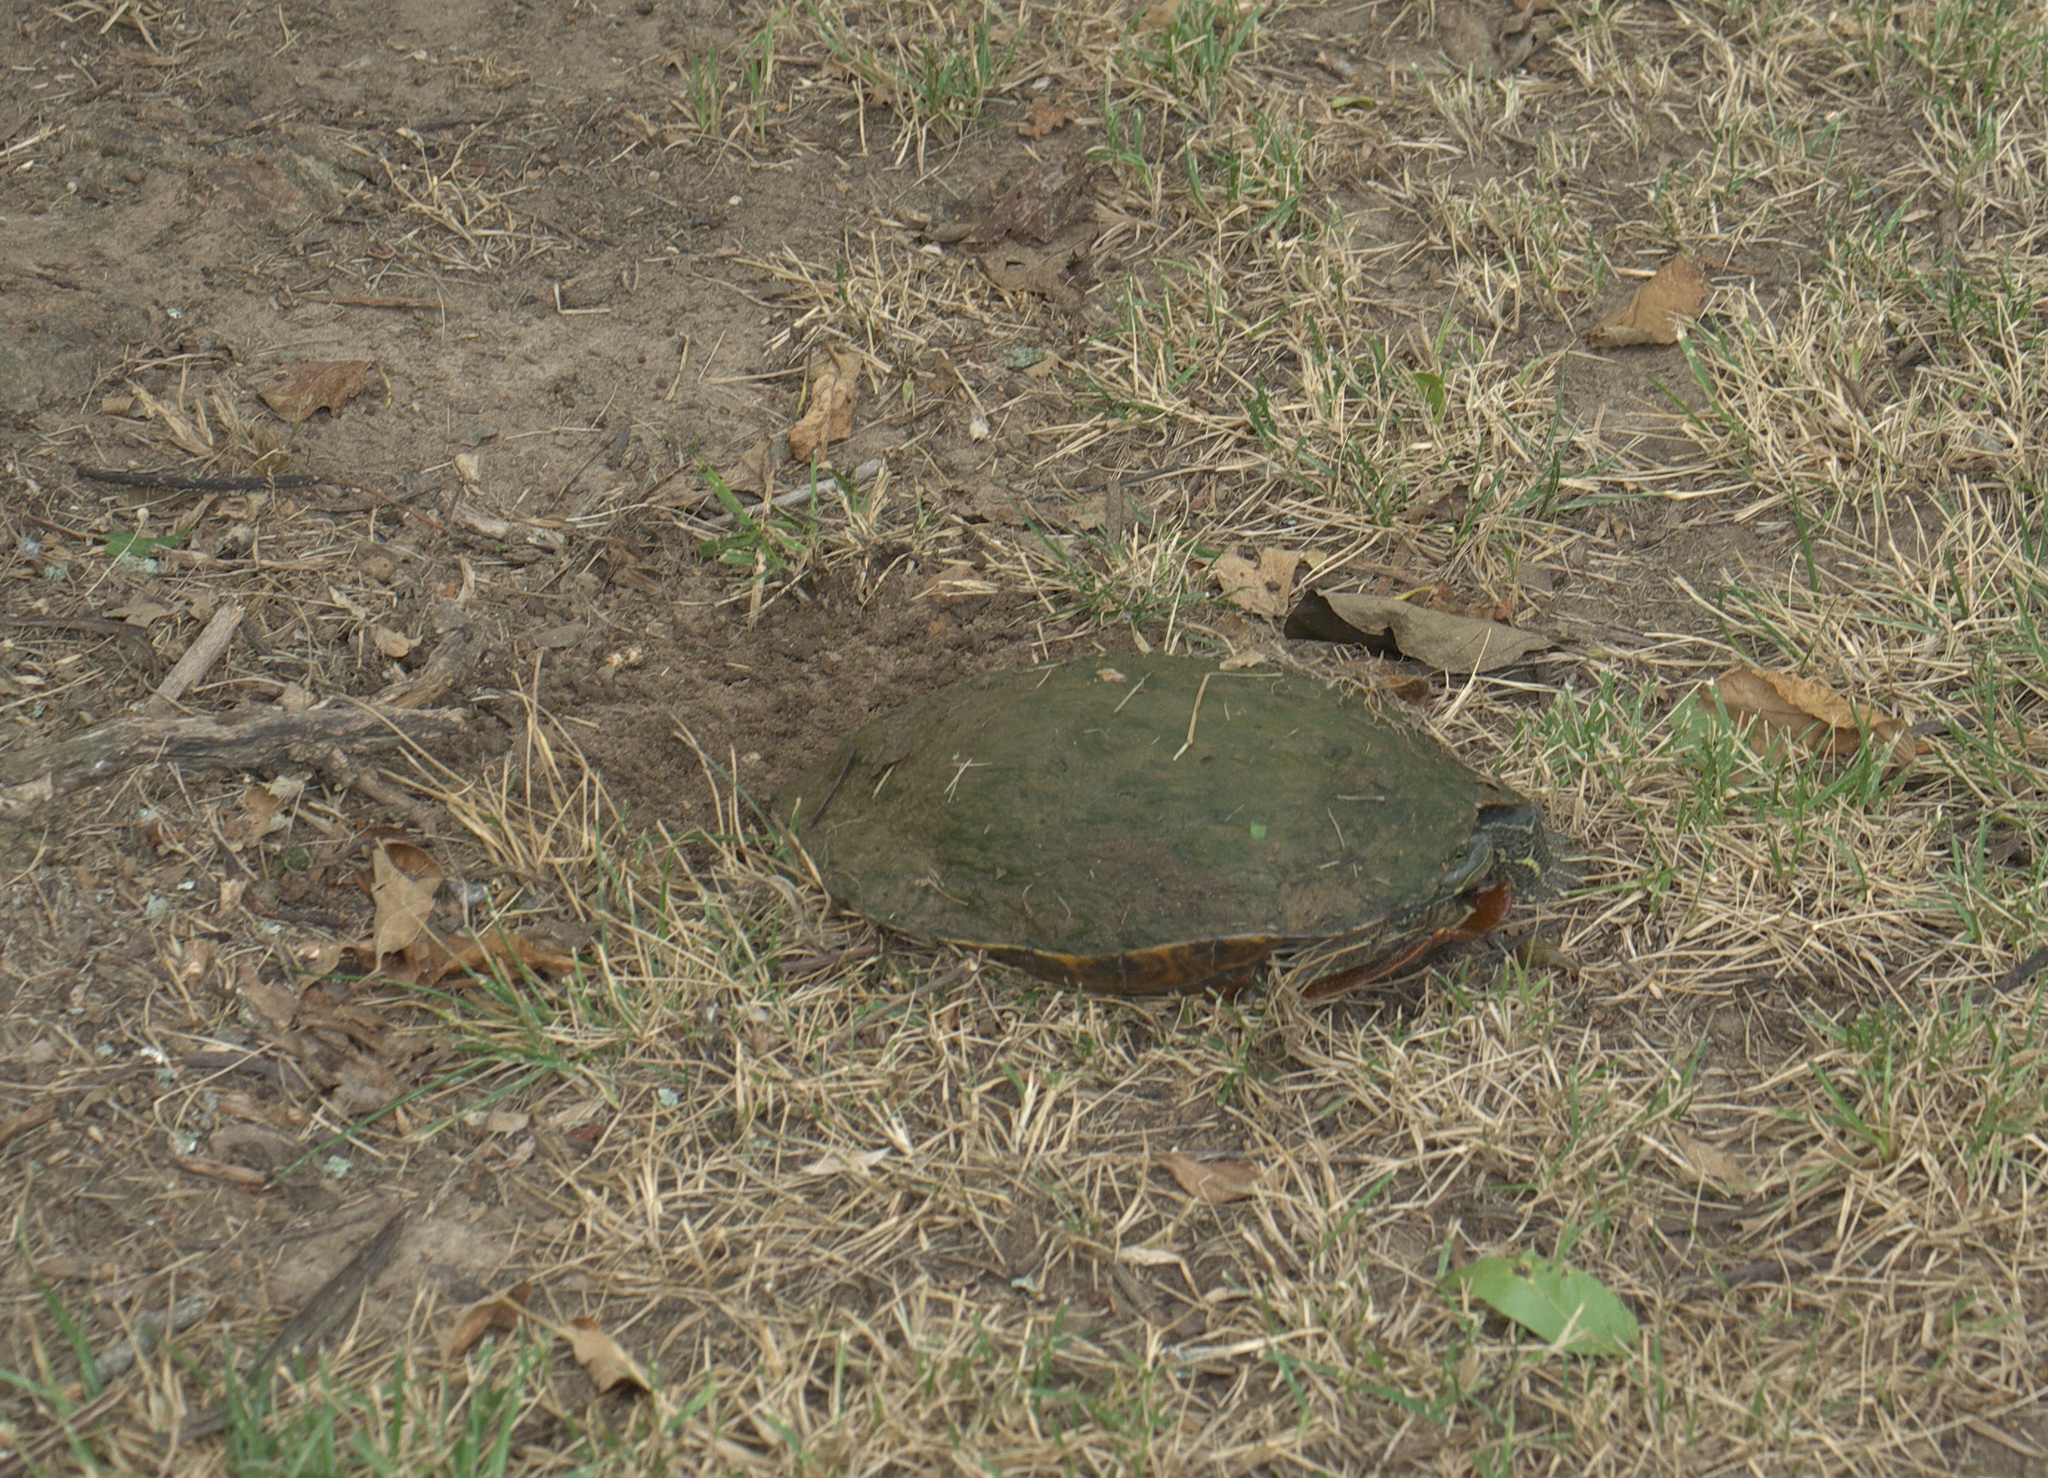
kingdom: Animalia
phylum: Chordata
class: Testudines
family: Emydidae
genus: Trachemys
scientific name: Trachemys scripta
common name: Slider
